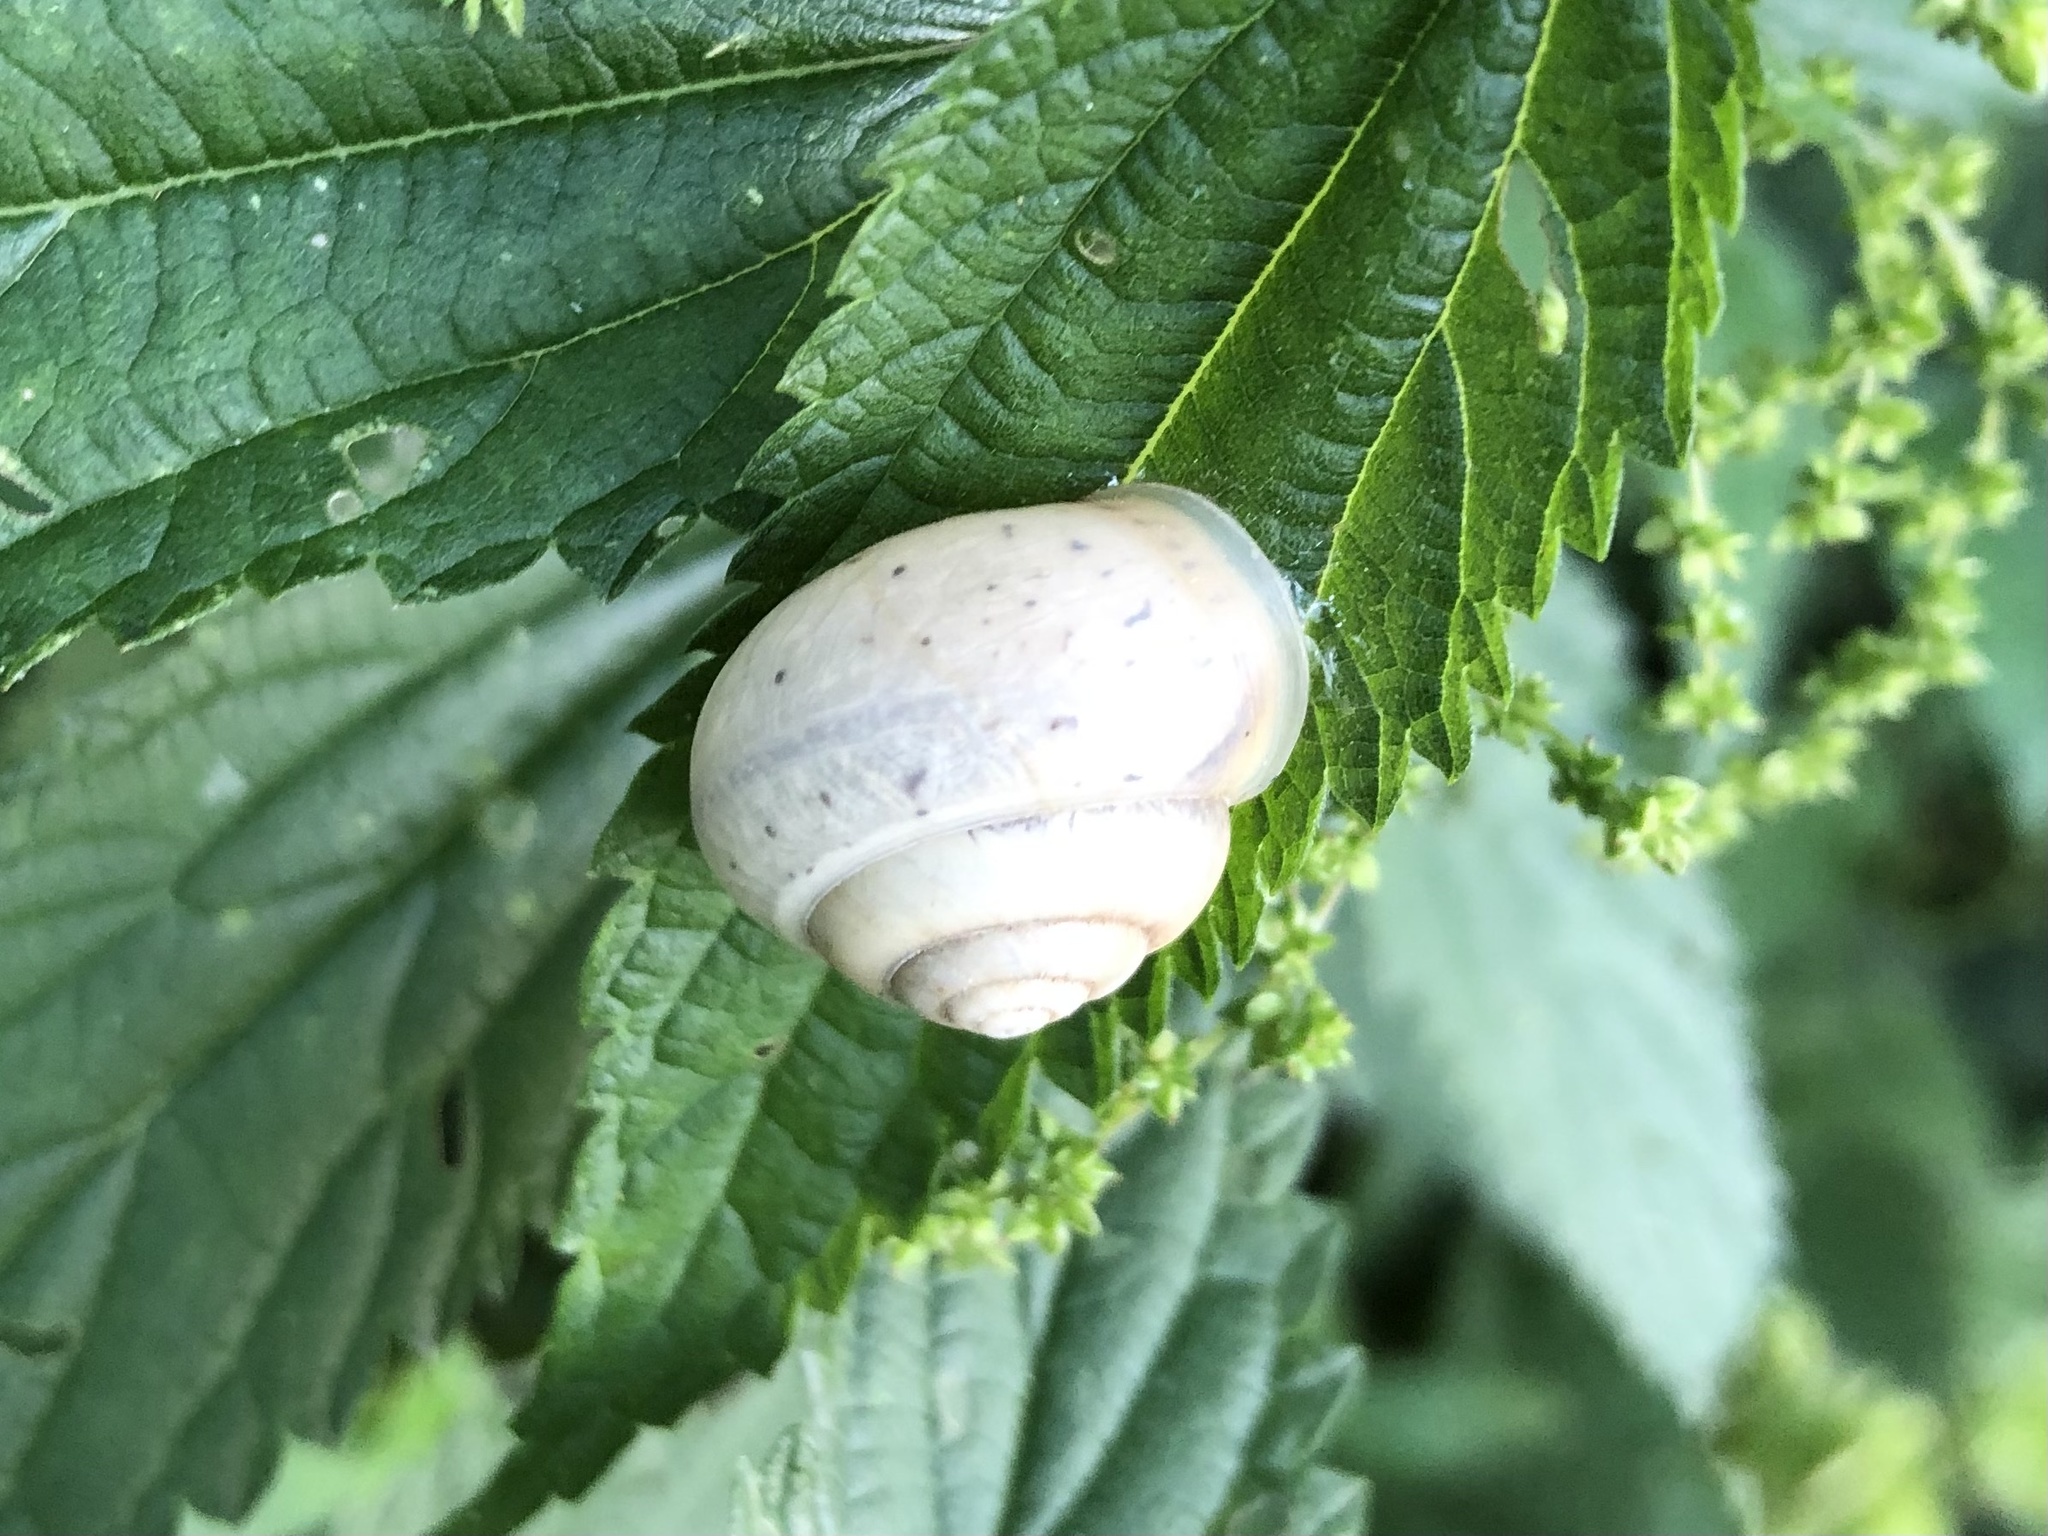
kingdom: Animalia
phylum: Mollusca
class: Gastropoda
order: Stylommatophora
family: Camaenidae
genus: Fruticicola
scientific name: Fruticicola fruticum
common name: Bush snail
